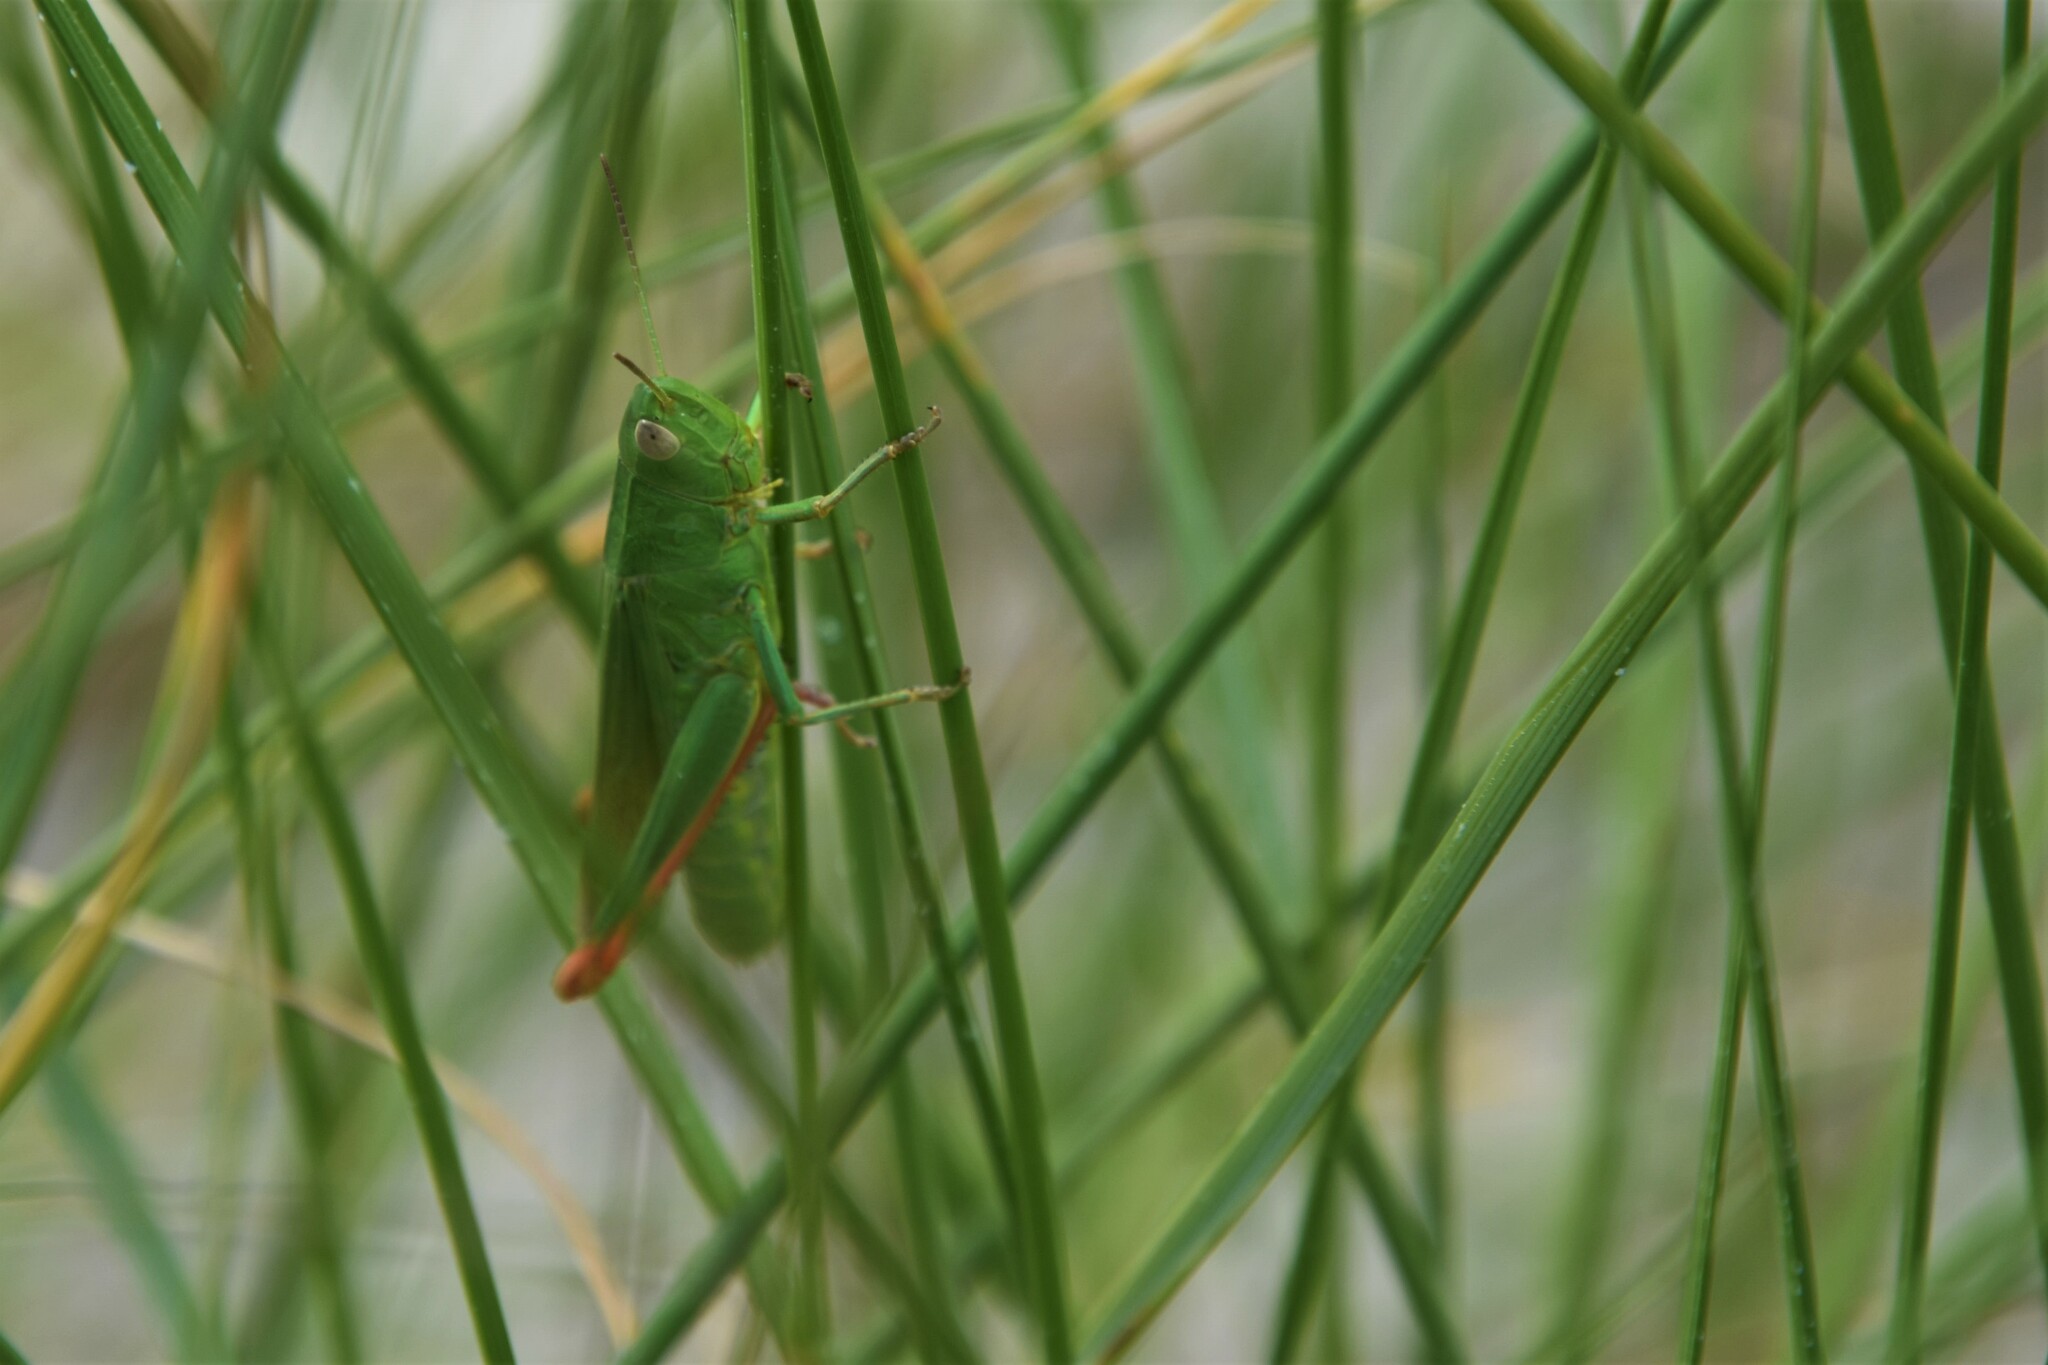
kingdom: Animalia
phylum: Arthropoda
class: Insecta
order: Orthoptera
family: Acrididae
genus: Chorthippus
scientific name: Chorthippus jucundus
